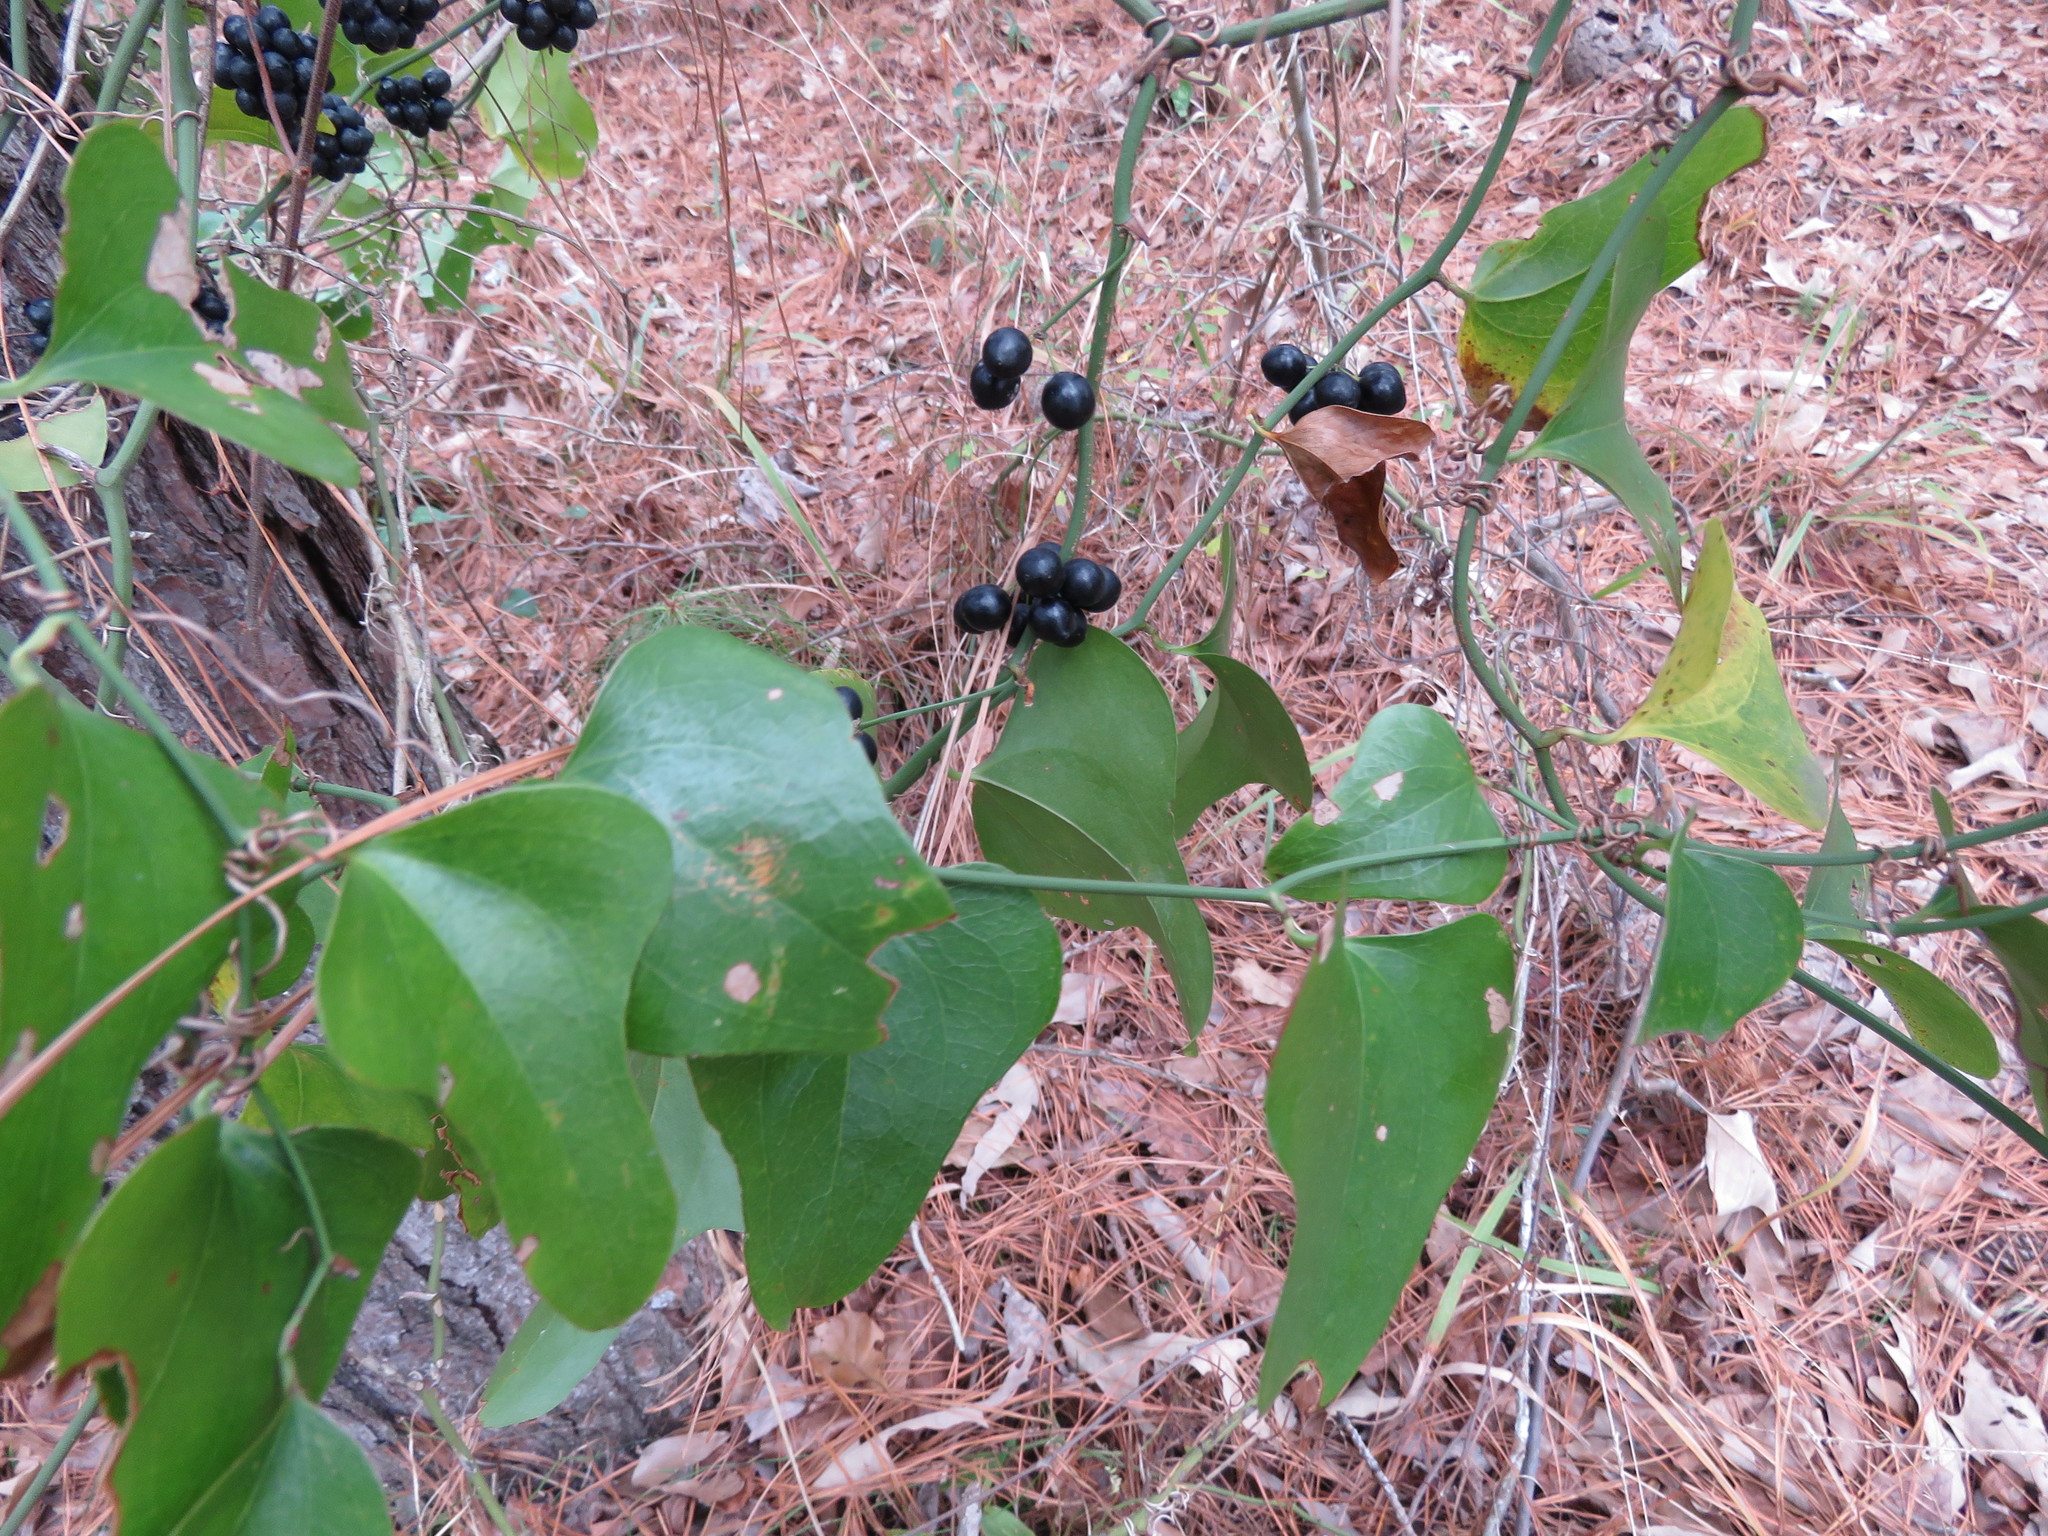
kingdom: Plantae
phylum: Tracheophyta
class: Liliopsida
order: Liliales
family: Smilacaceae
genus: Smilax
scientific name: Smilax bona-nox
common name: Catbrier
